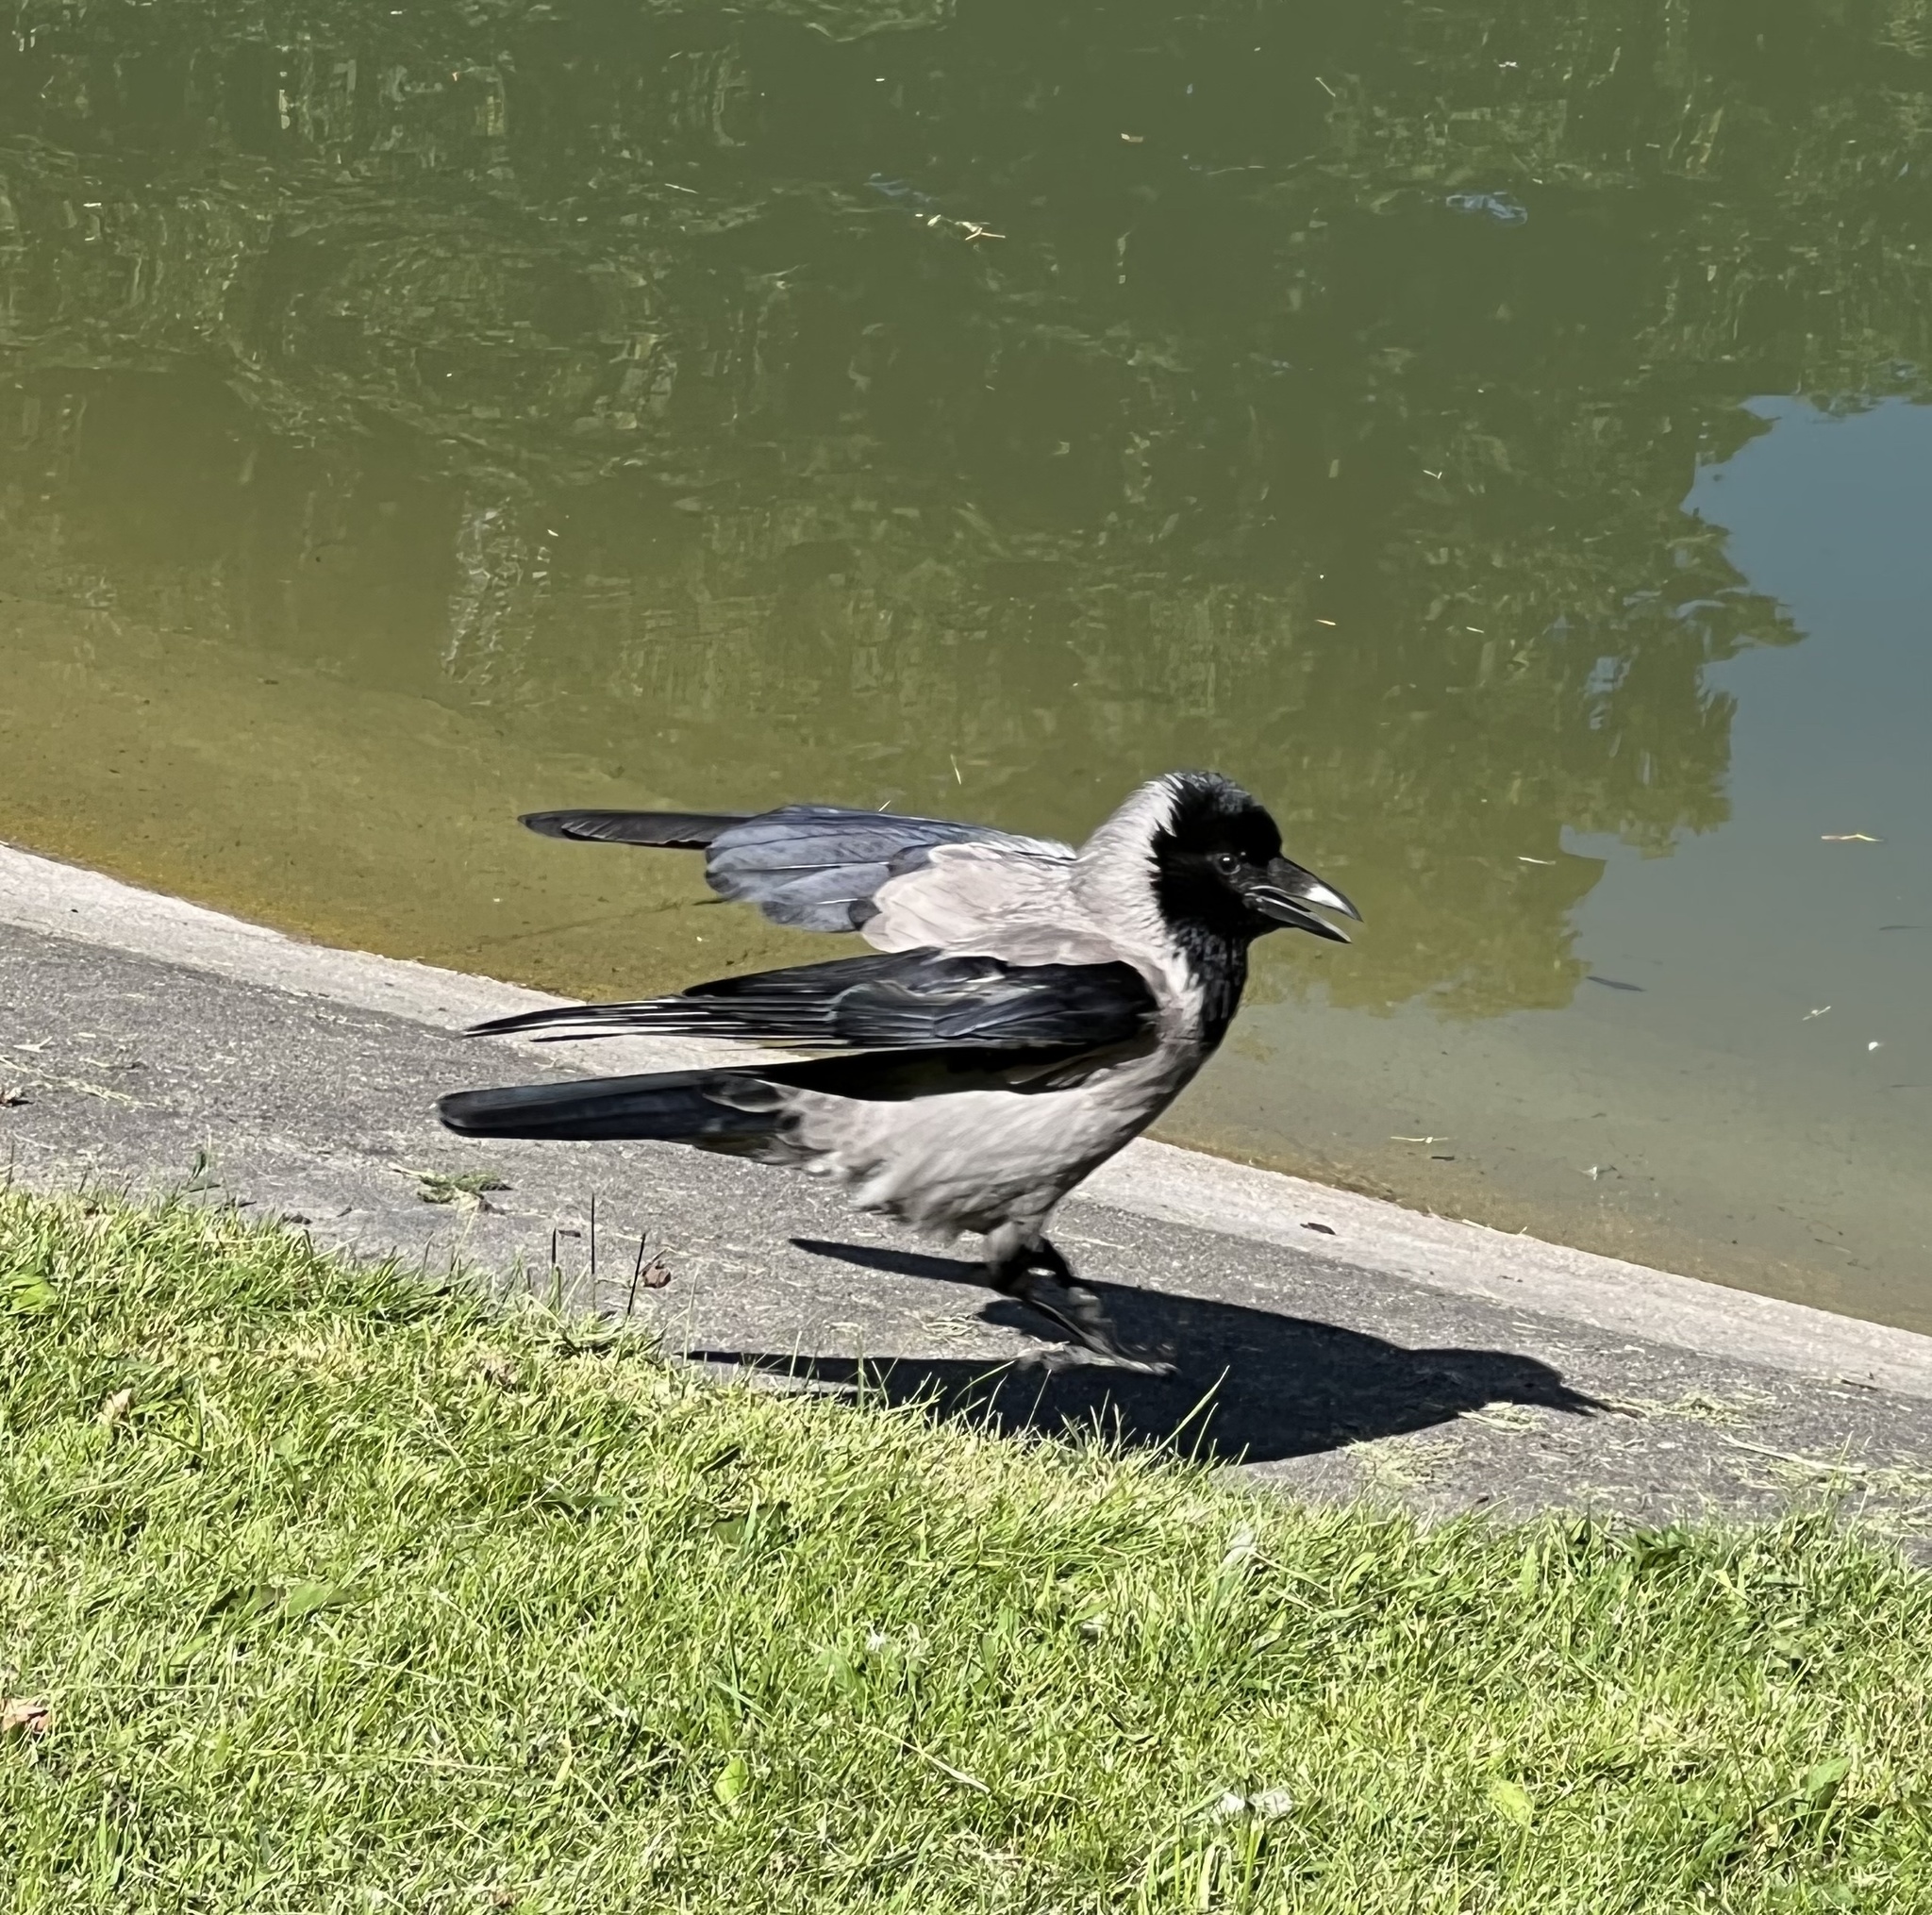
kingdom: Animalia
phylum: Chordata
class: Aves
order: Passeriformes
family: Corvidae
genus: Corvus
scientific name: Corvus cornix
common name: Hooded crow
